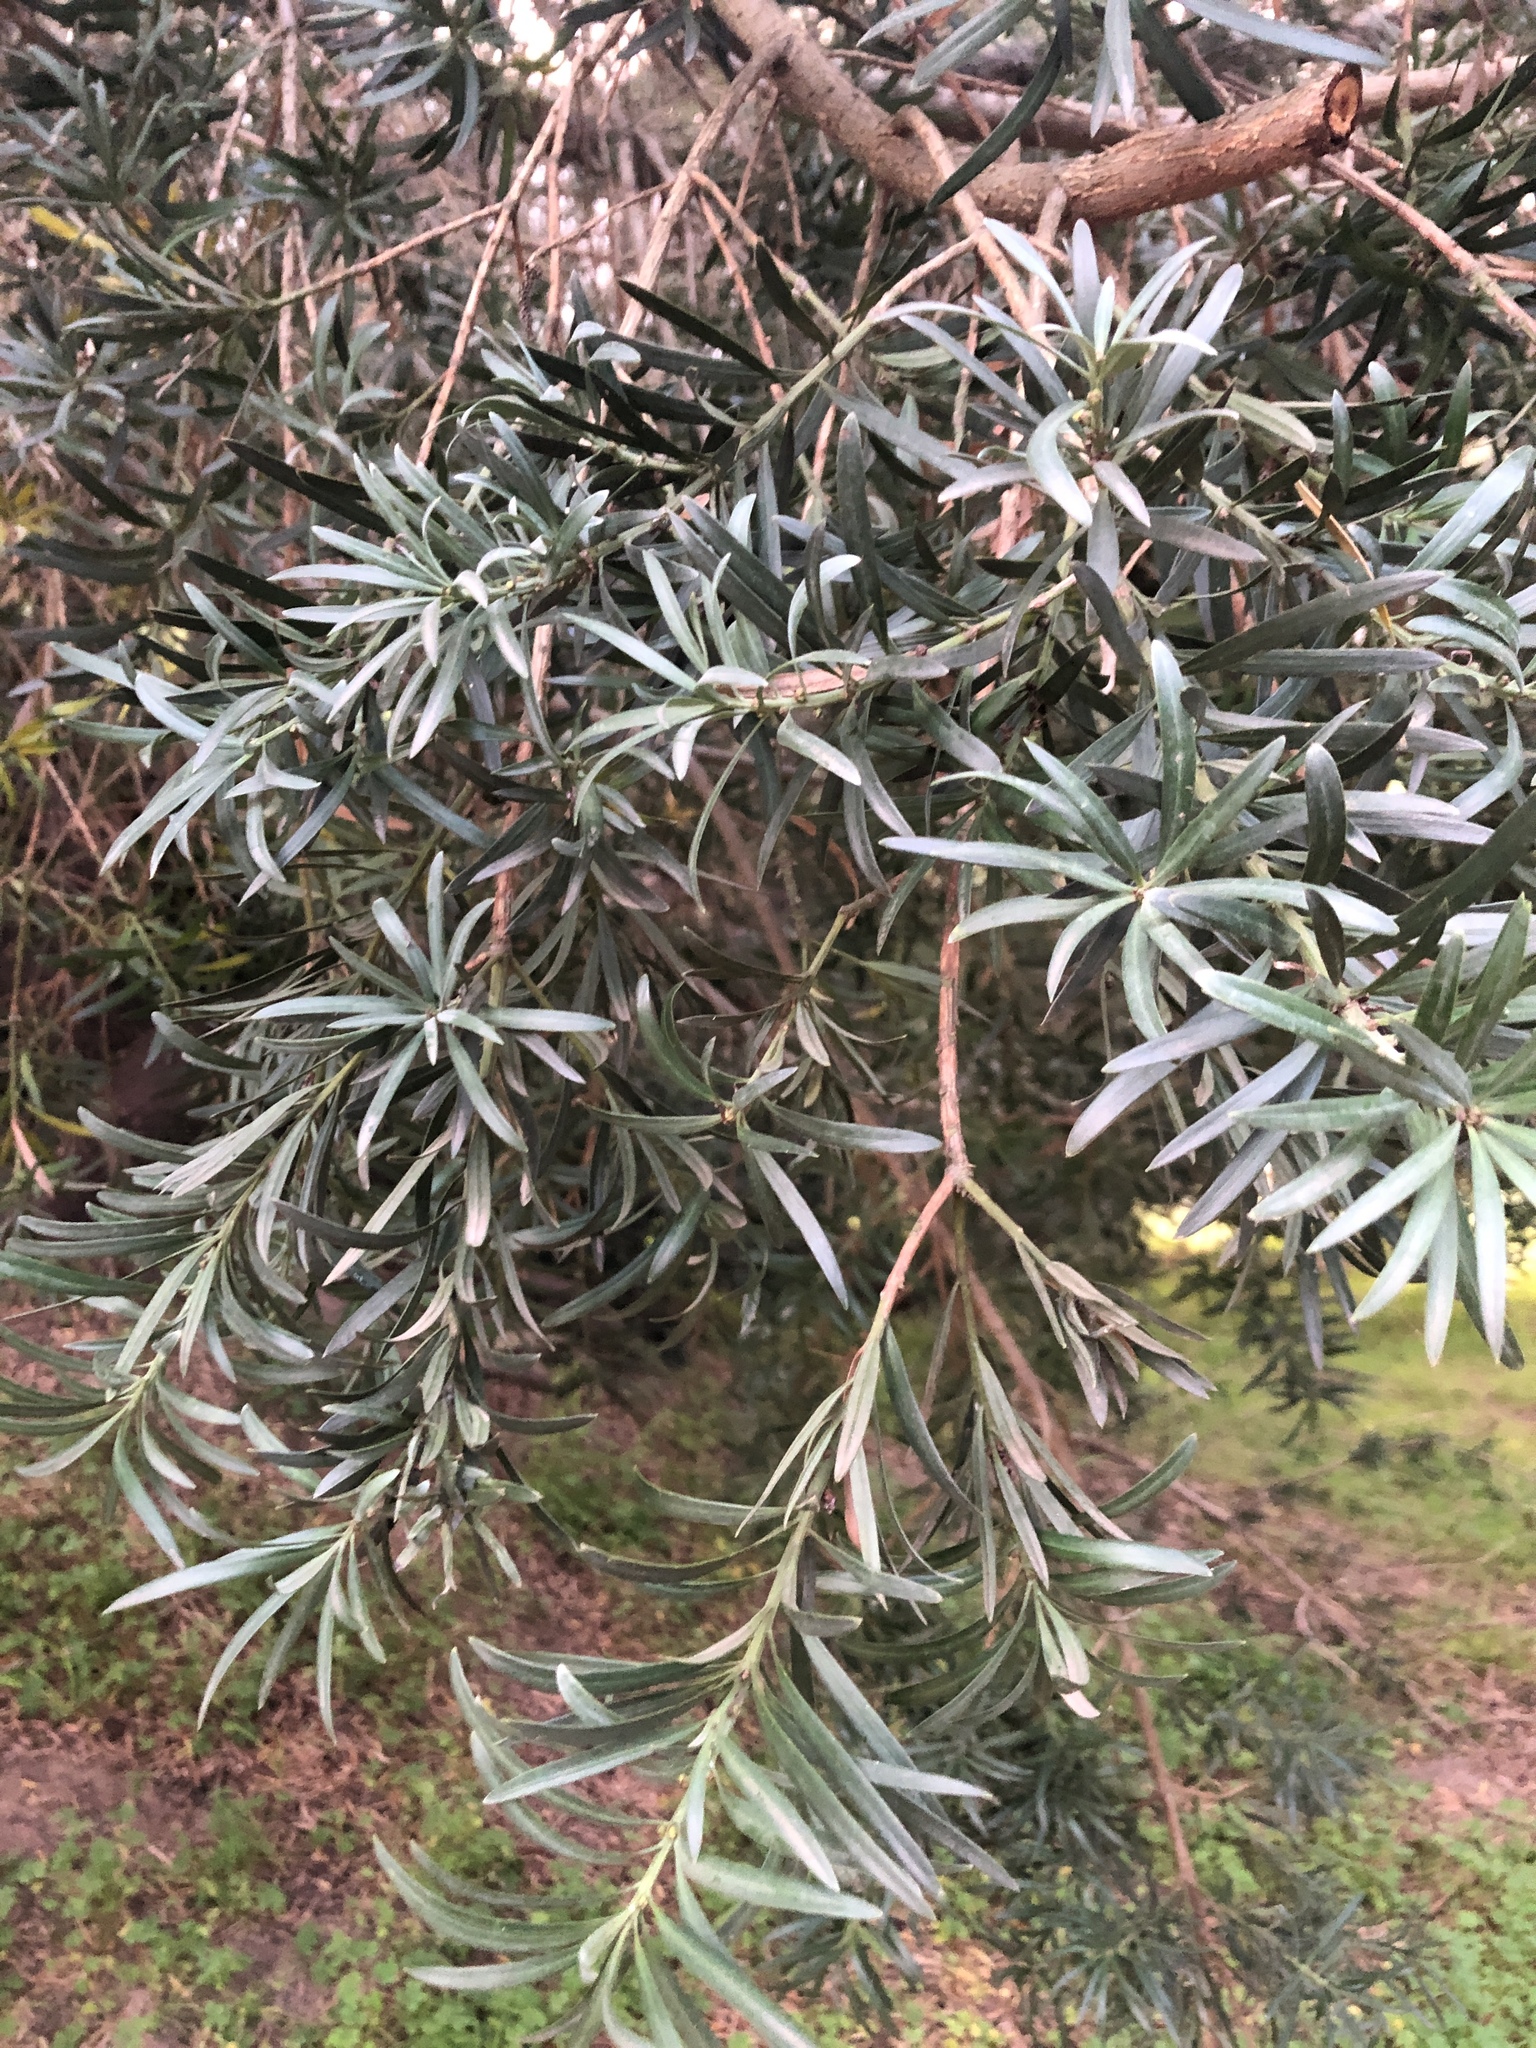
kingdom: Plantae
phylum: Tracheophyta
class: Pinopsida
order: Pinales
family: Podocarpaceae
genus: Podocarpus
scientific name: Podocarpus latifolius
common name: True yellowwood
